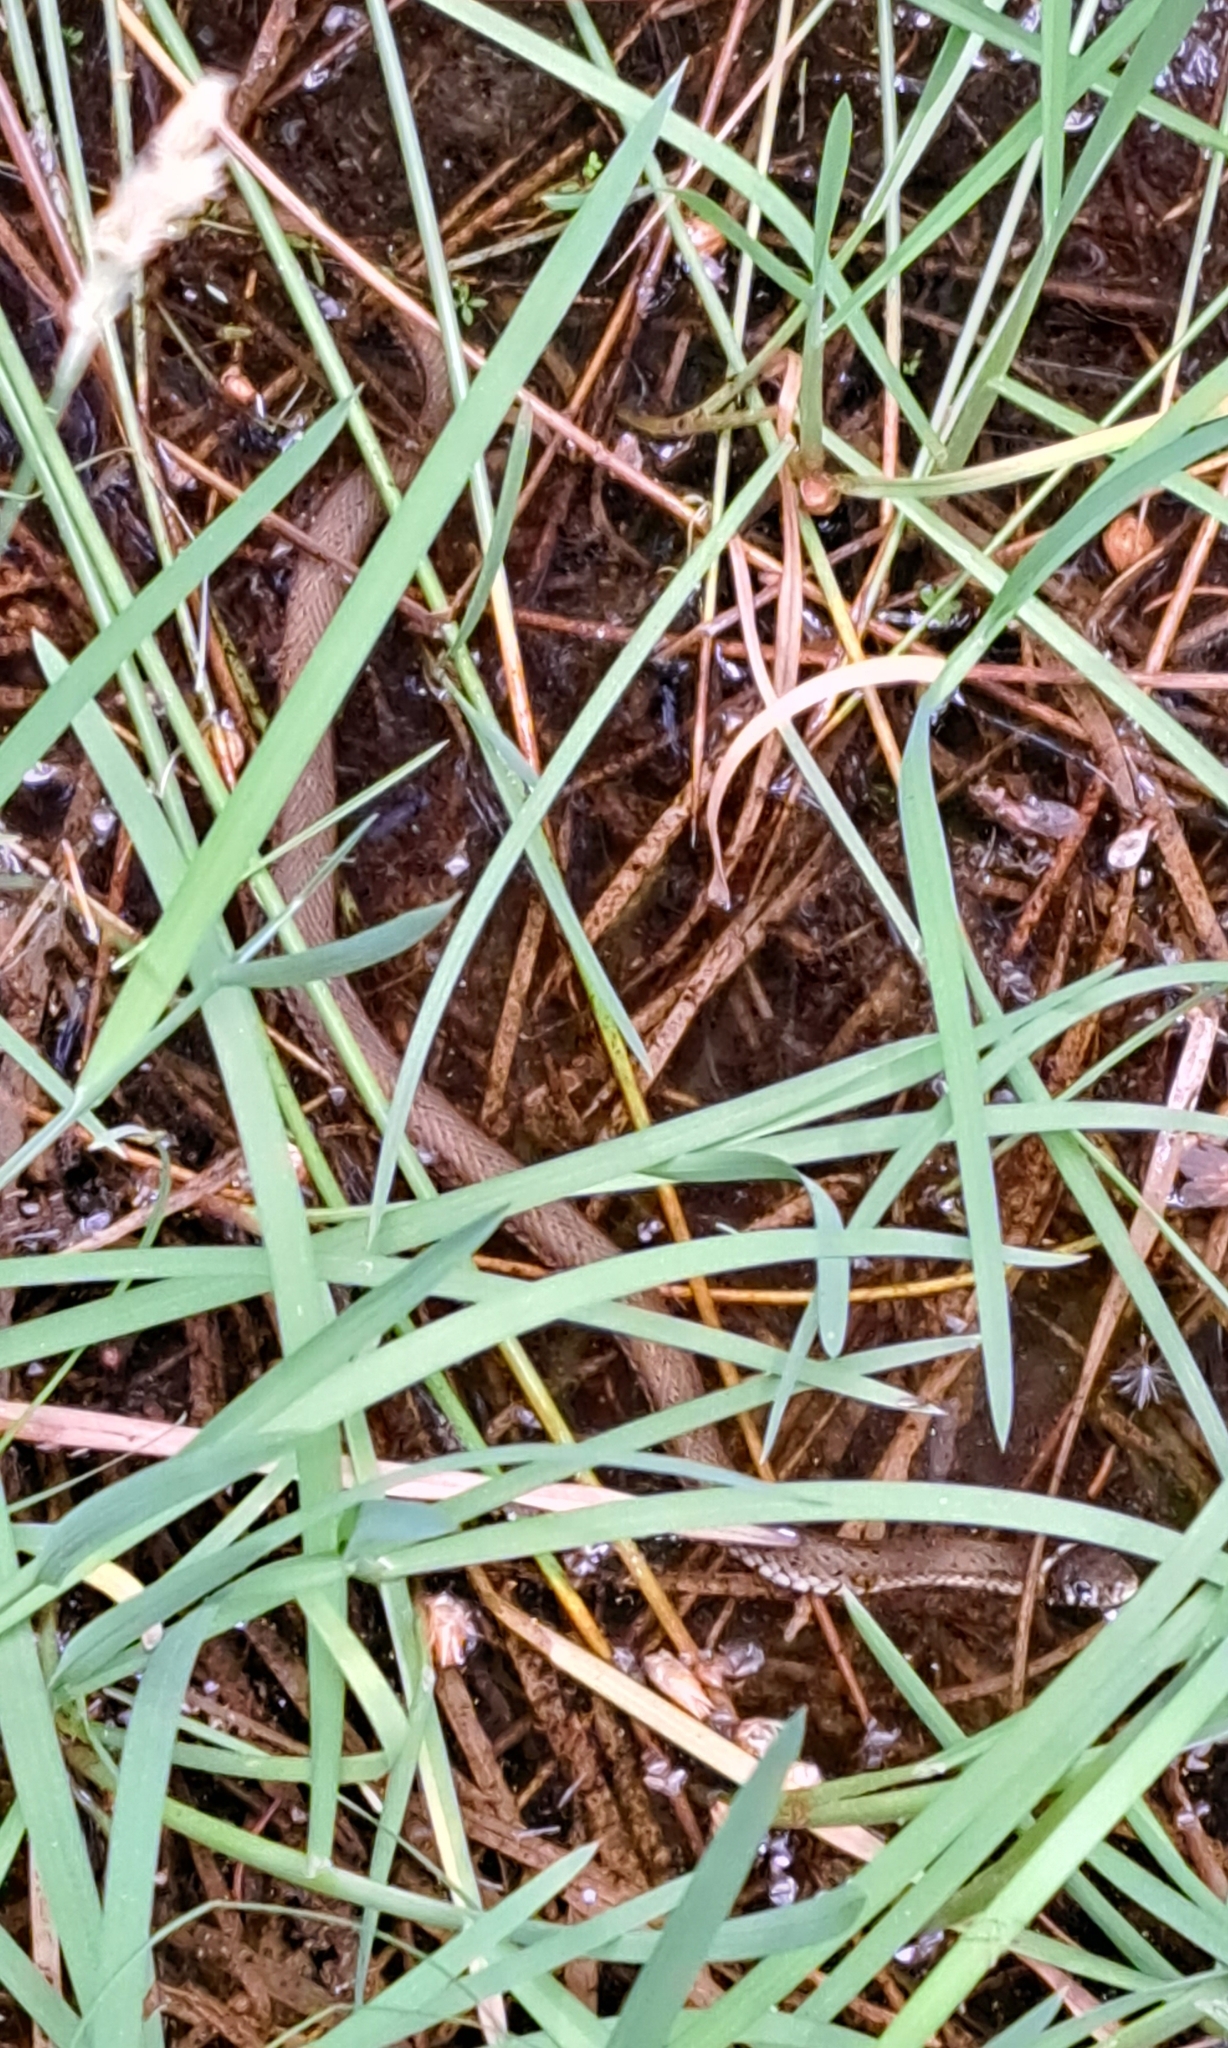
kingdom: Animalia
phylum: Chordata
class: Squamata
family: Colubridae
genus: Natrix
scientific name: Natrix natrix
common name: Grass snake
